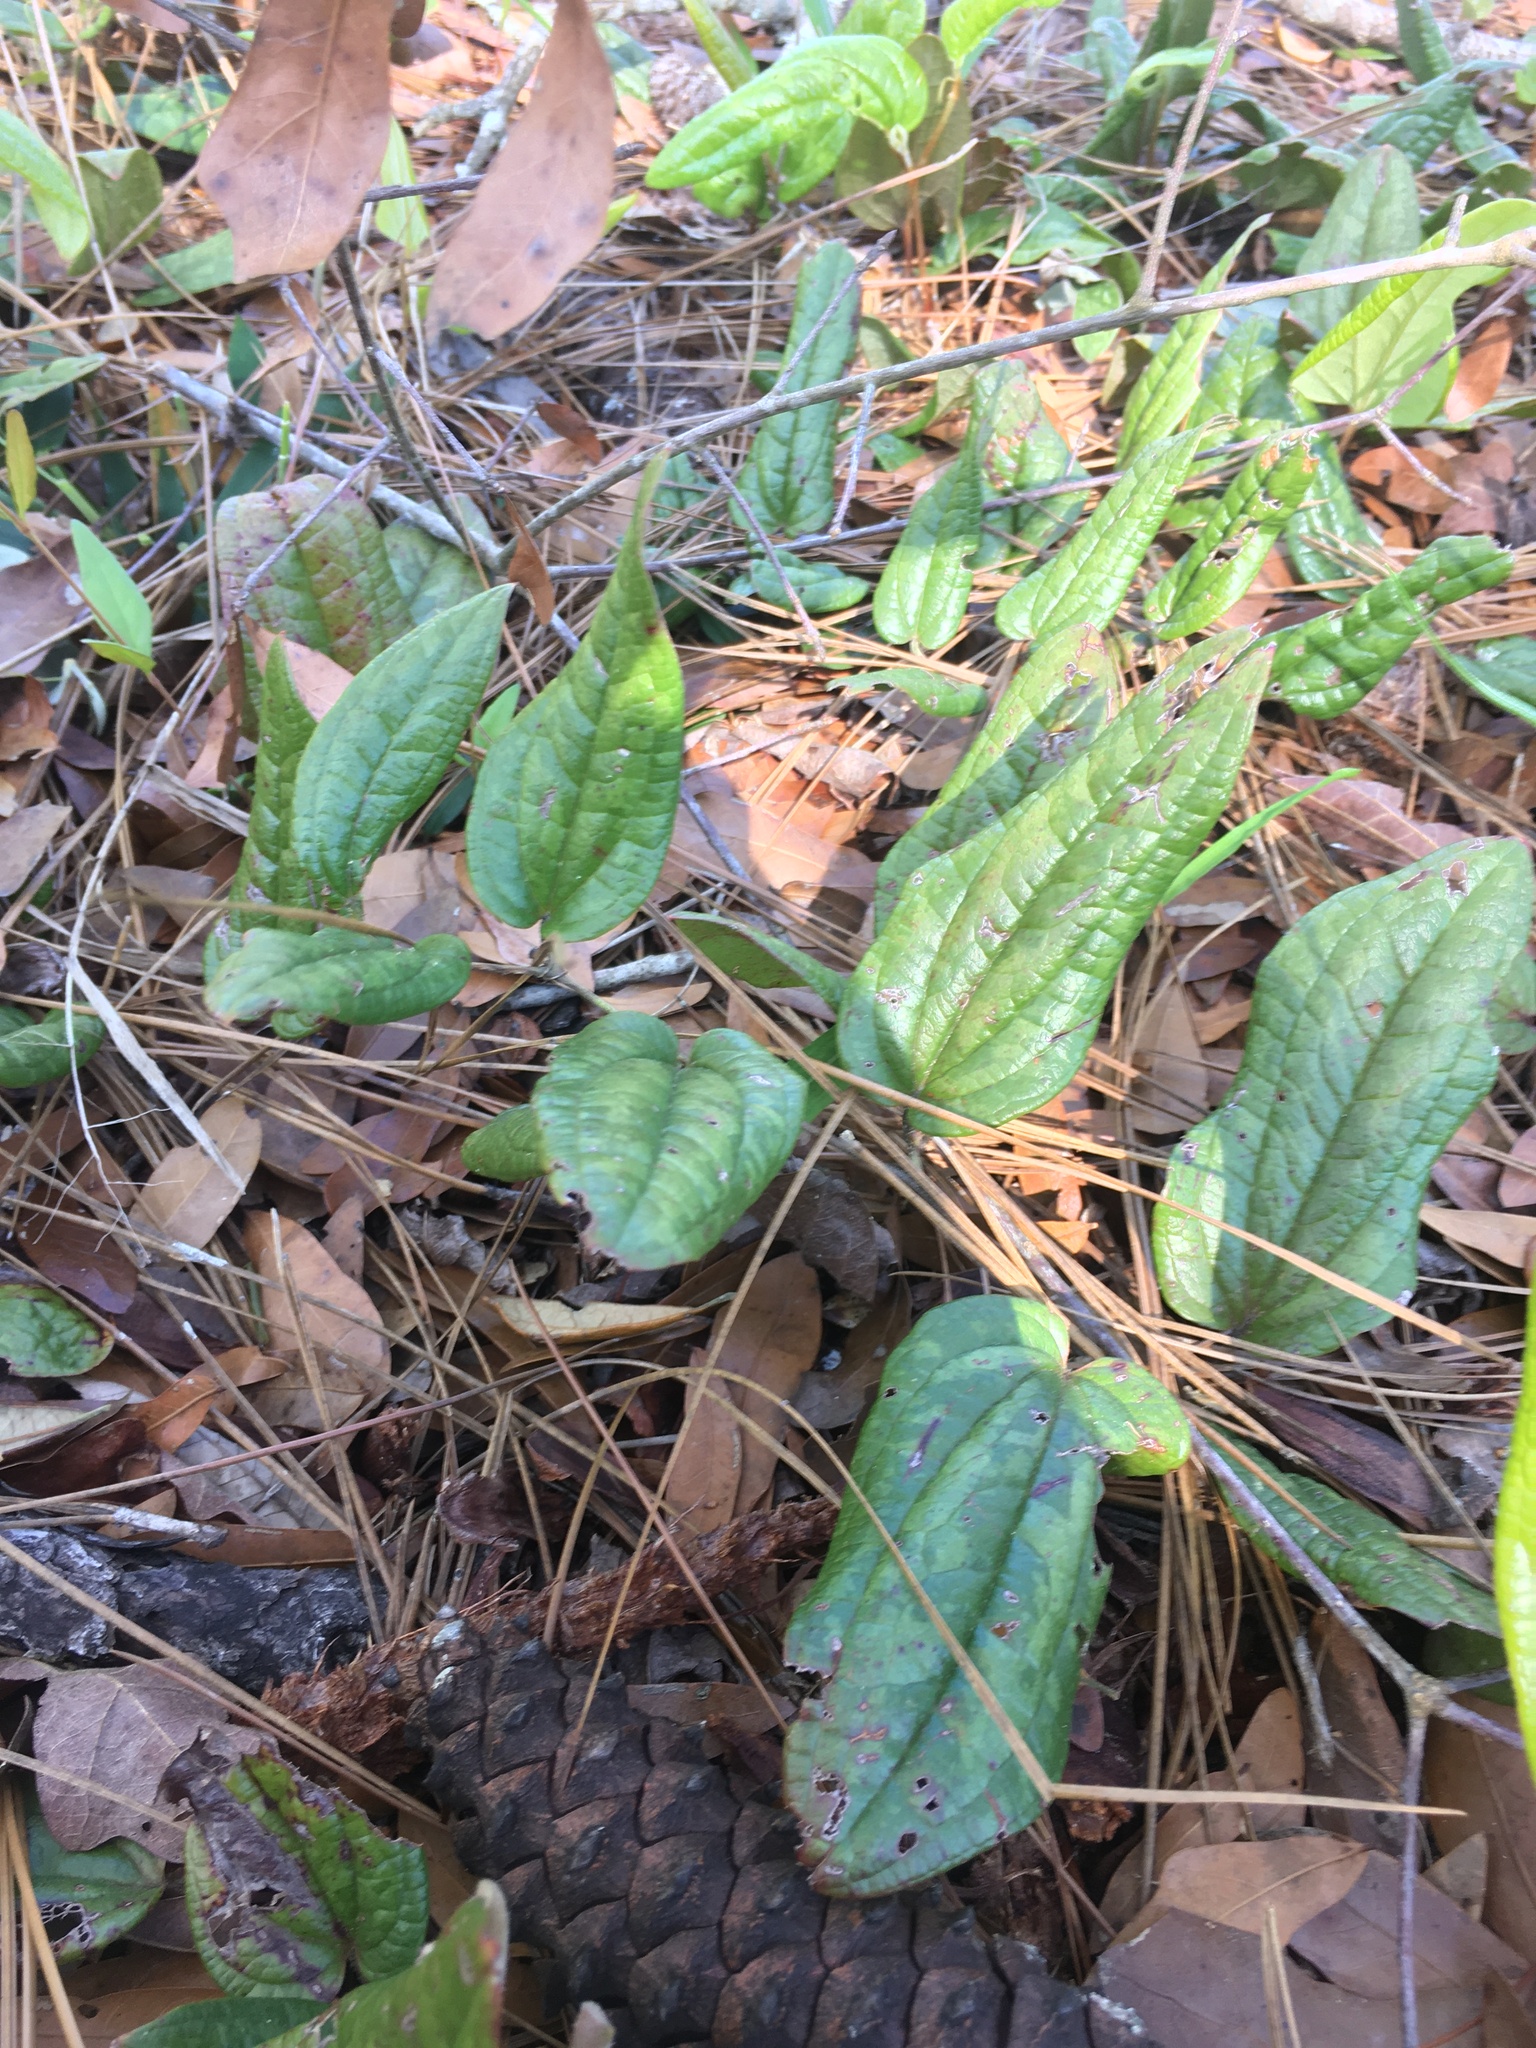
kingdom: Plantae
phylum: Tracheophyta
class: Liliopsida
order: Liliales
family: Smilacaceae
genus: Smilax
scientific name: Smilax pumila
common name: Sarsaparilla-vine
